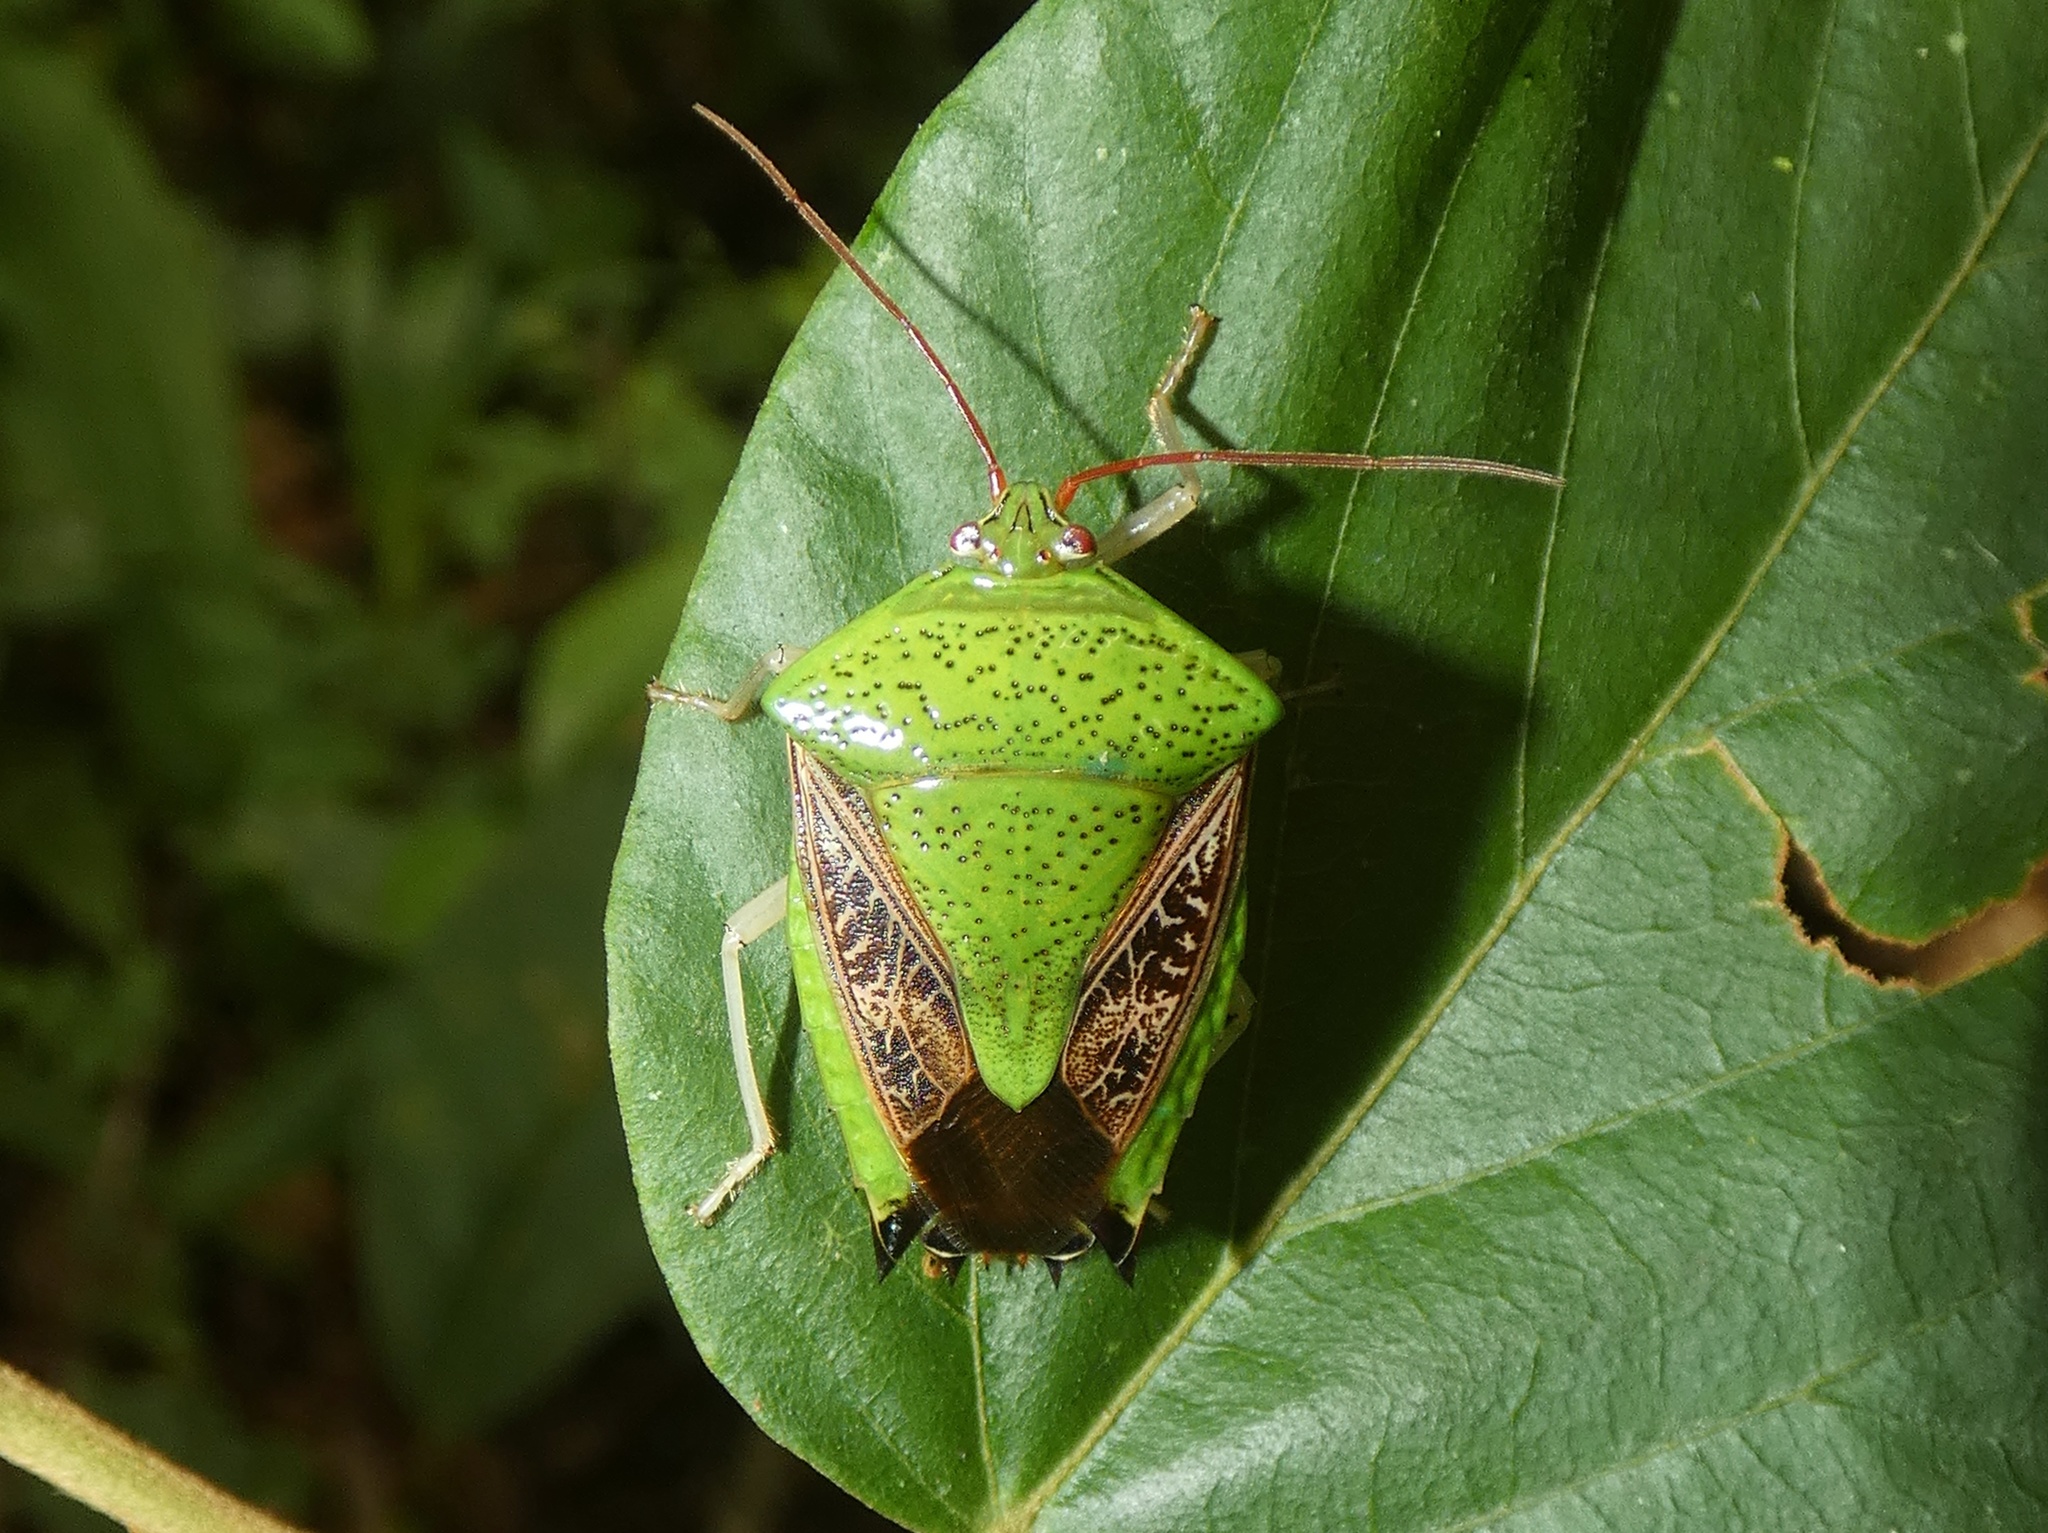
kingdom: Animalia
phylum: Arthropoda
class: Insecta
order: Hemiptera
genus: Pygoda
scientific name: Pygoda ramosa
